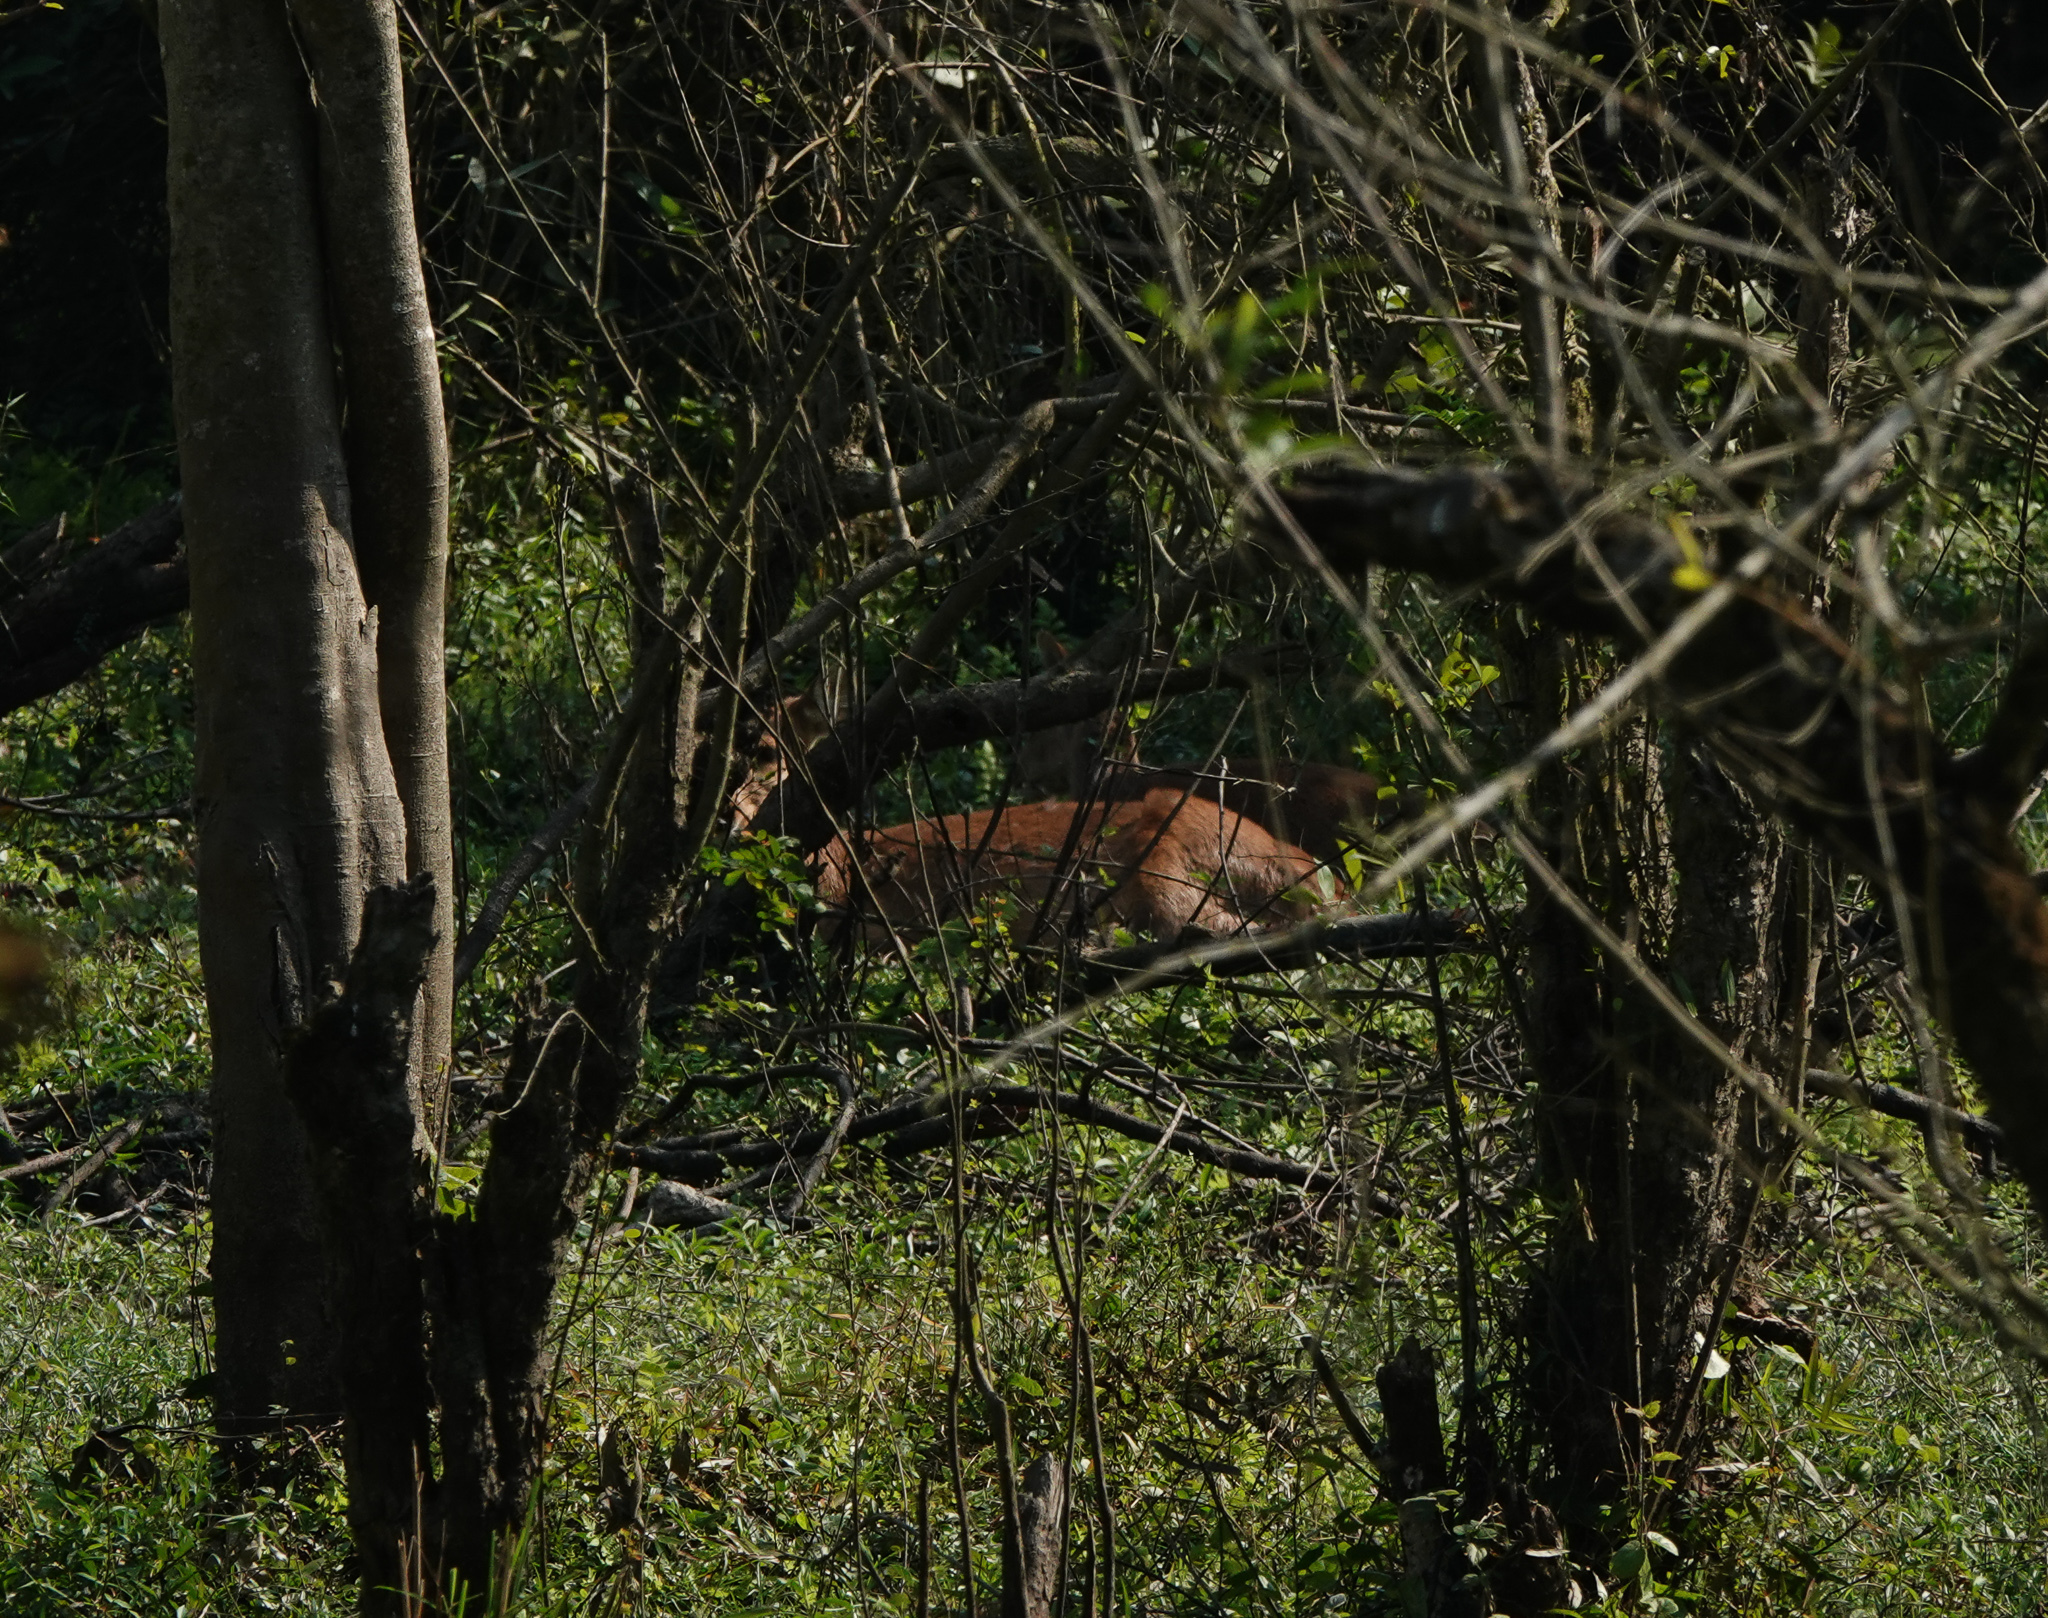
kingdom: Animalia
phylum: Chordata
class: Mammalia
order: Artiodactyla
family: Cervidae
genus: Axis
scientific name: Axis porcinus
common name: Hog deer
